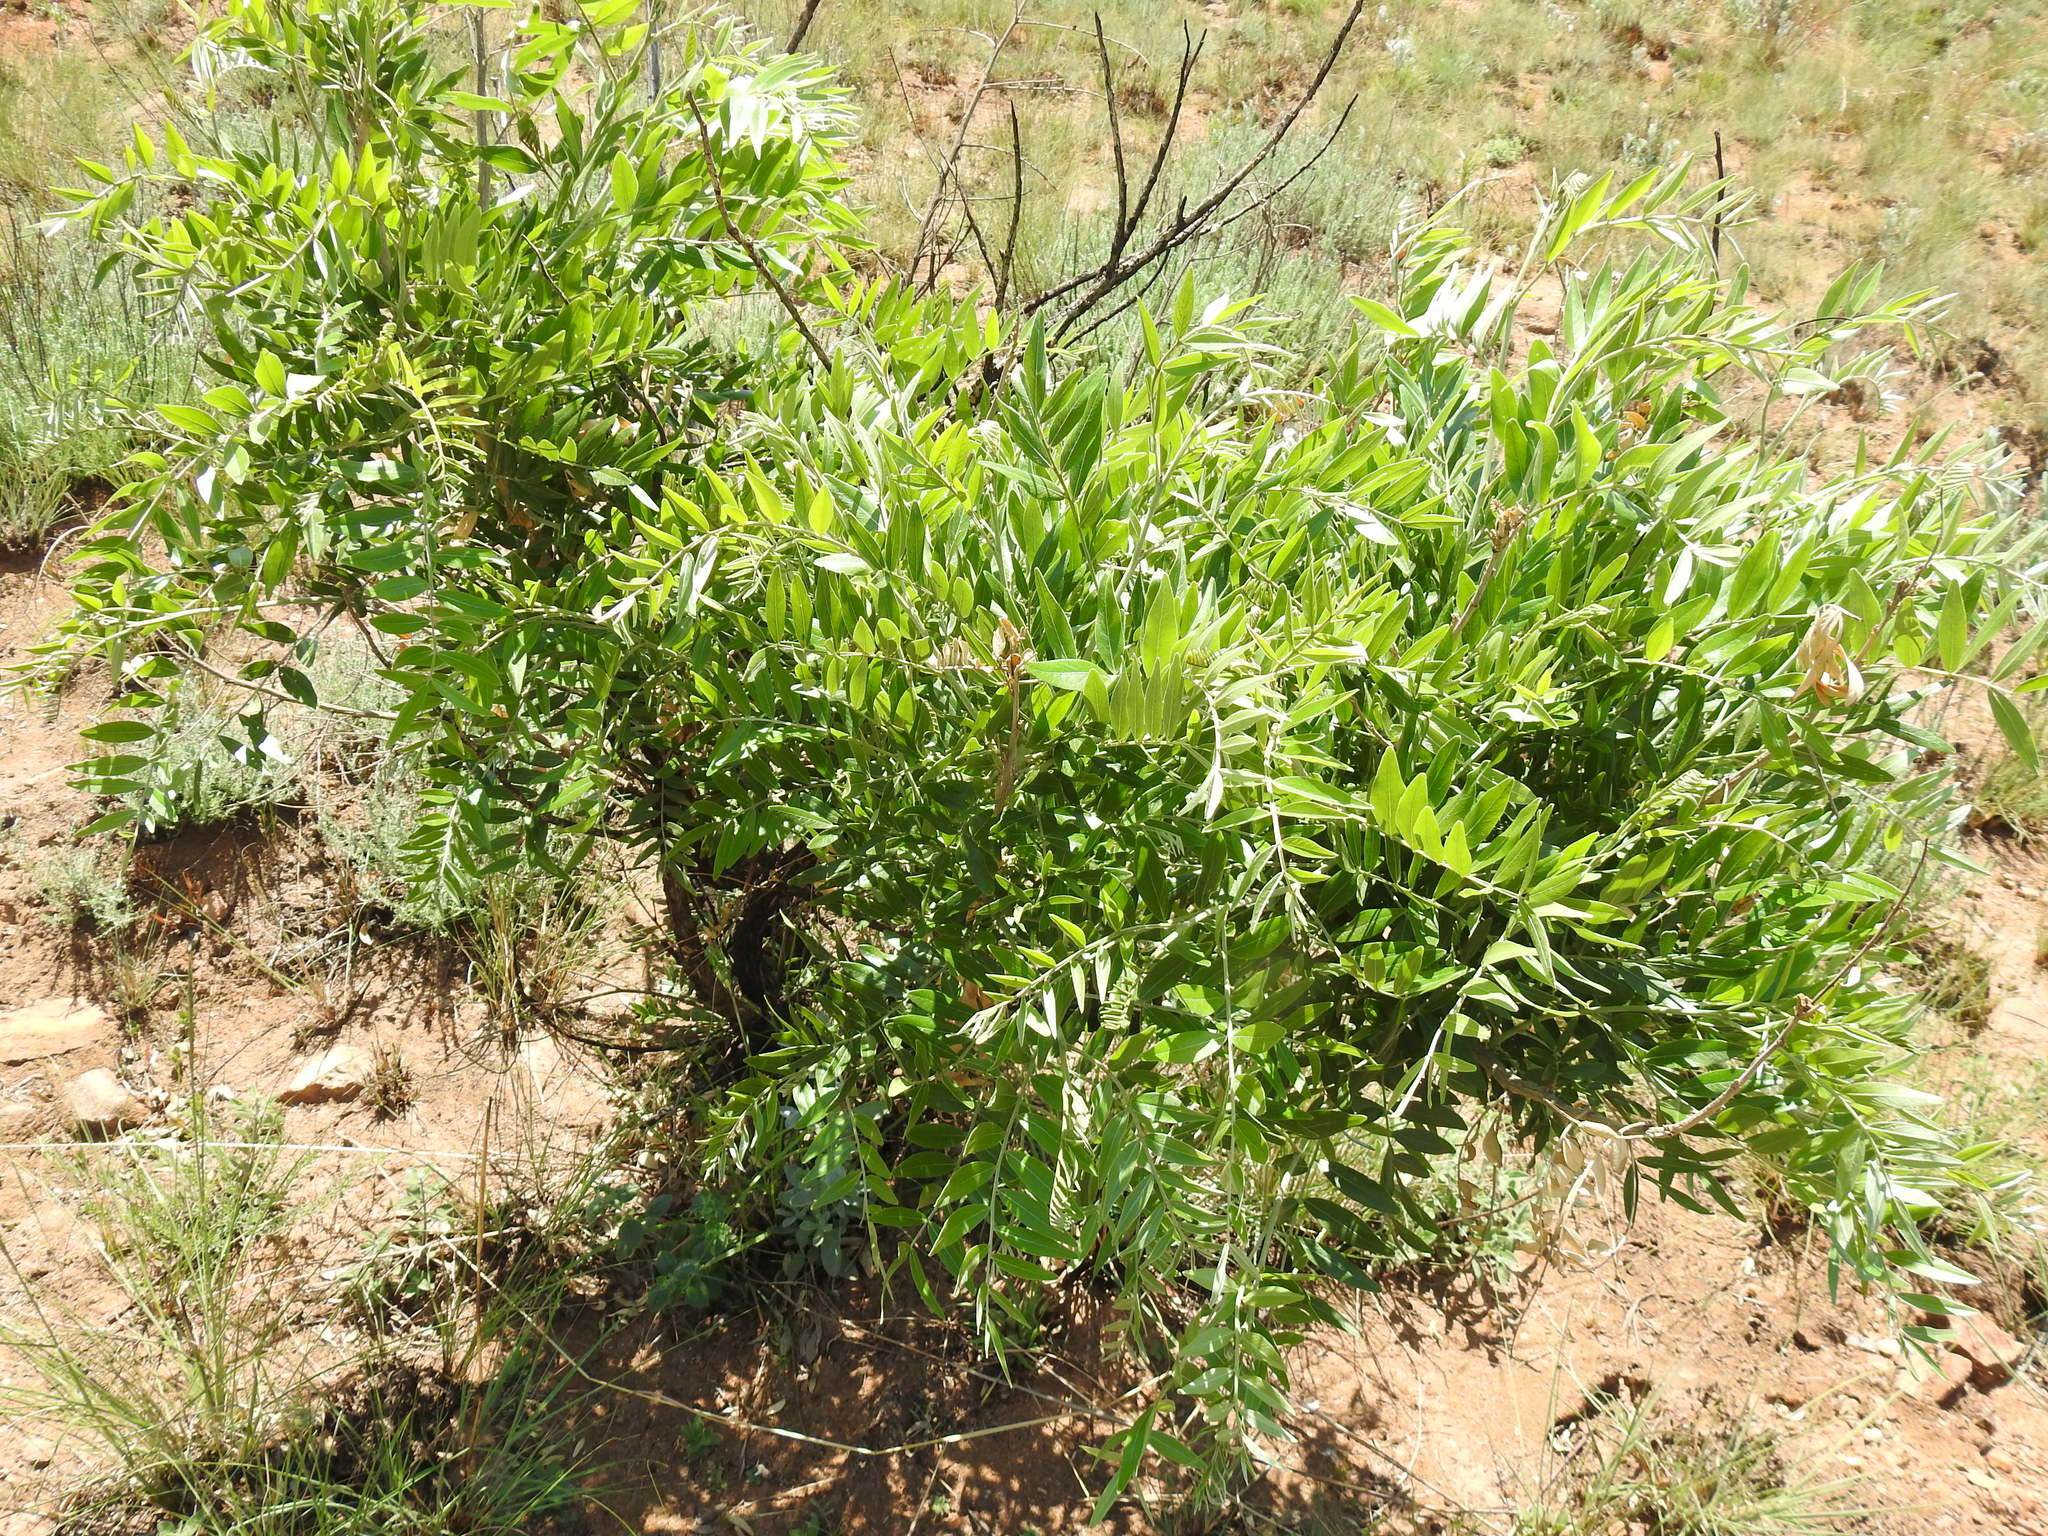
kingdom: Plantae
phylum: Tracheophyta
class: Magnoliopsida
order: Fabales
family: Fabaceae
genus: Mundulea
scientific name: Mundulea sericea
